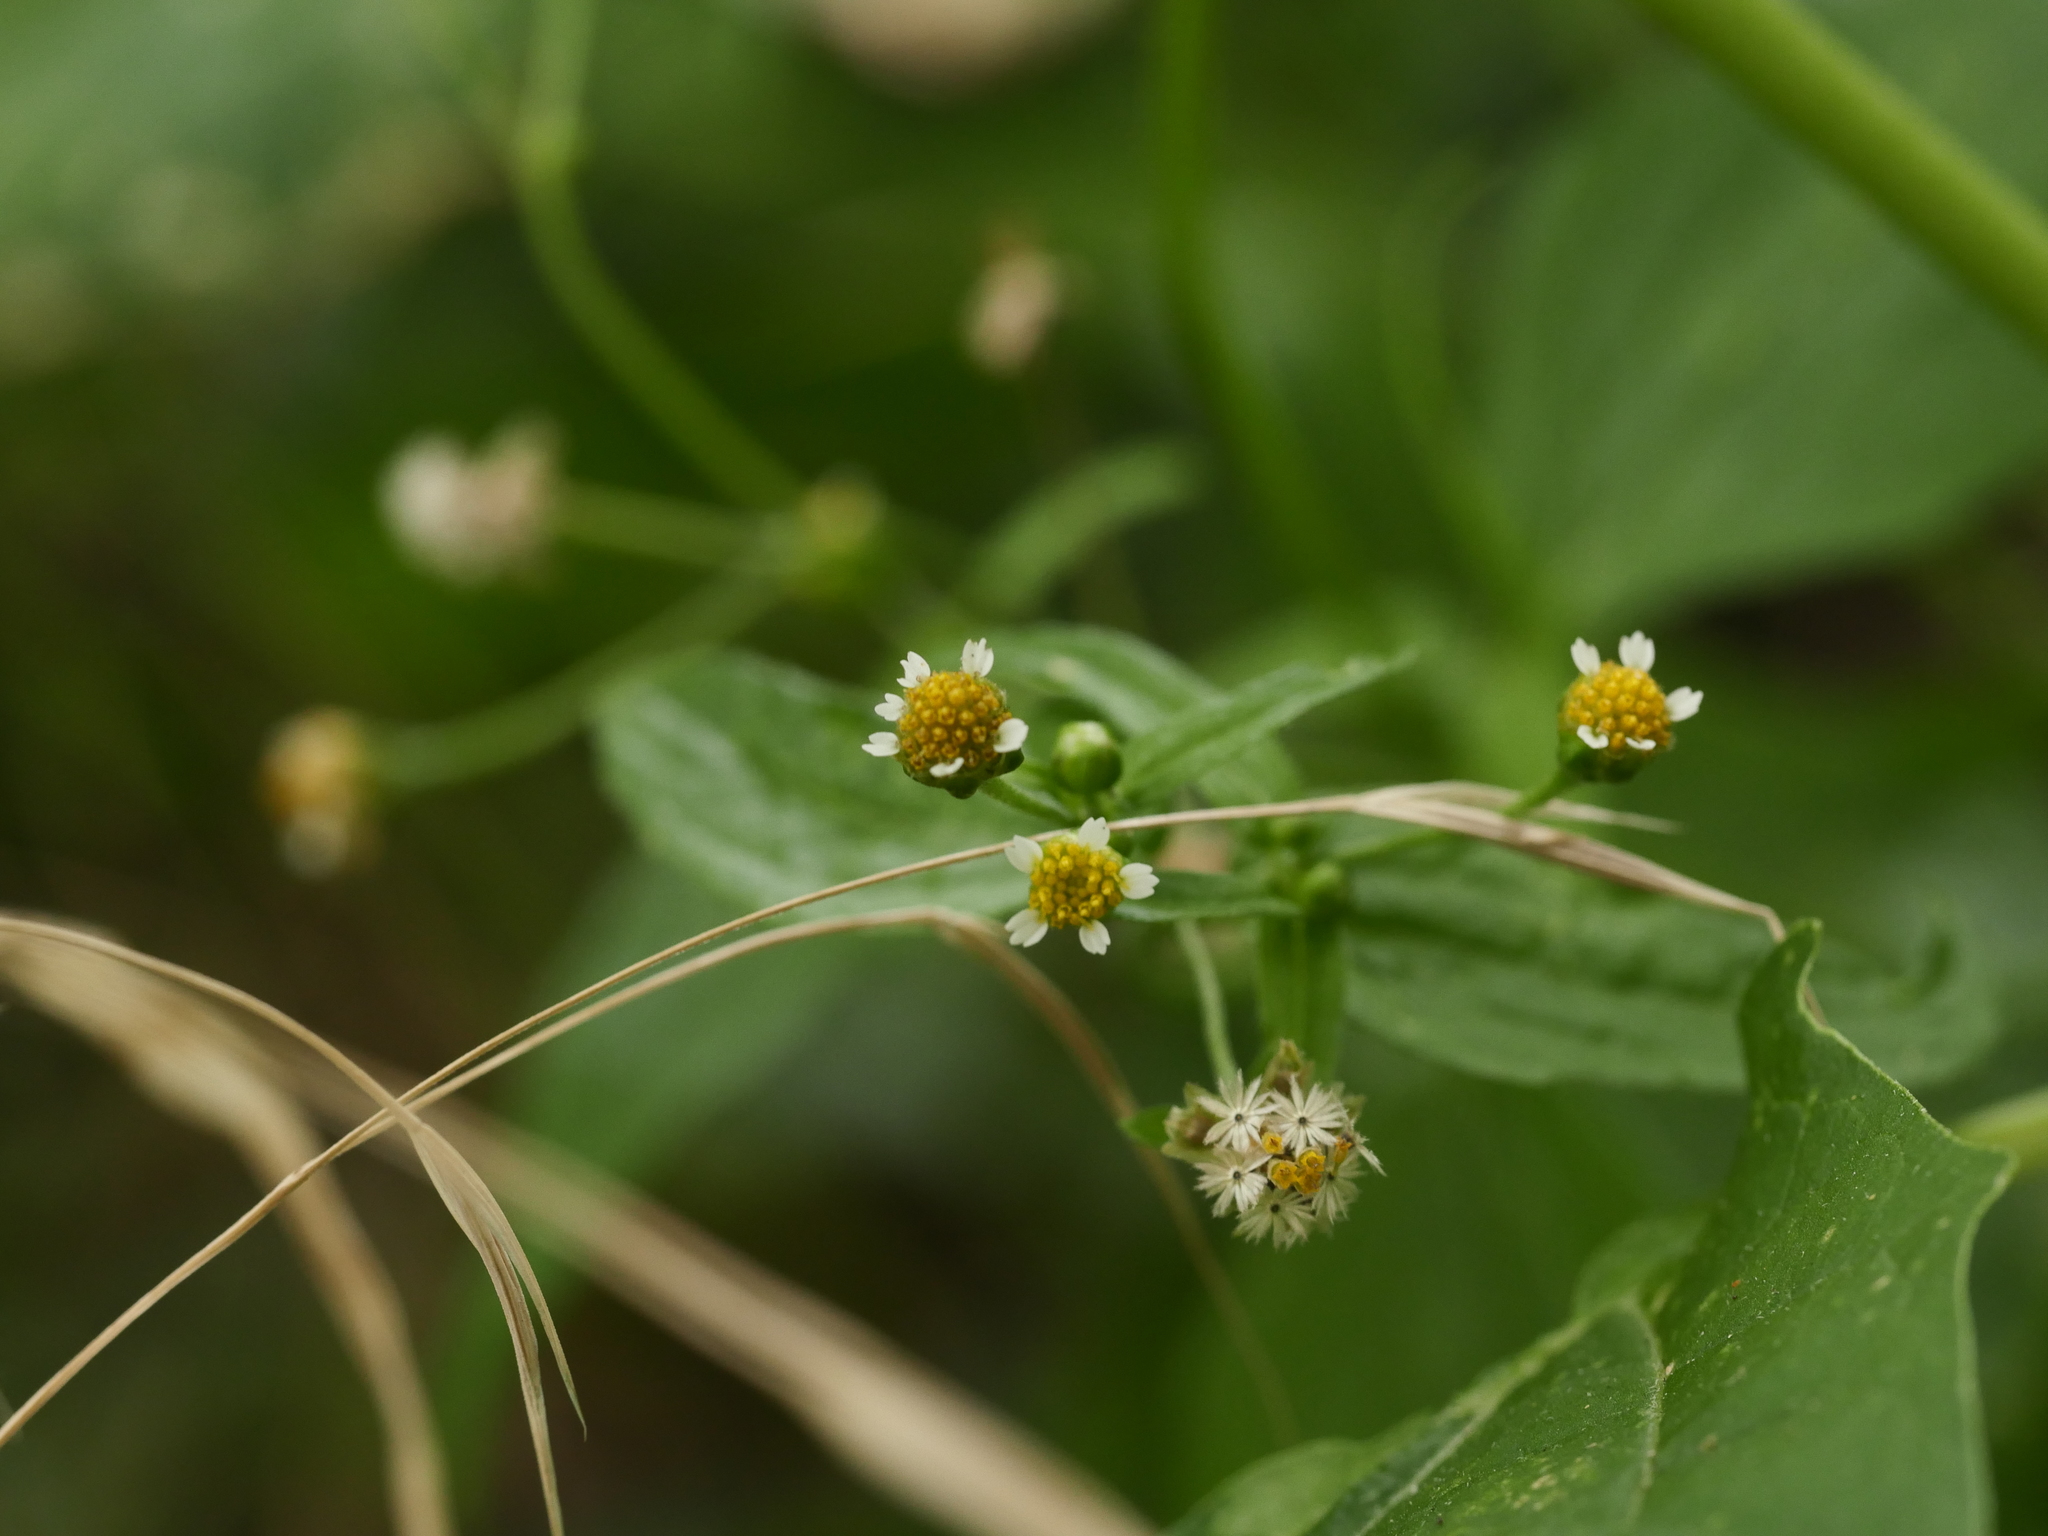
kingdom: Plantae
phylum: Tracheophyta
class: Magnoliopsida
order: Asterales
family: Asteraceae
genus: Galinsoga
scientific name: Galinsoga parviflora
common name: Gallant soldier
